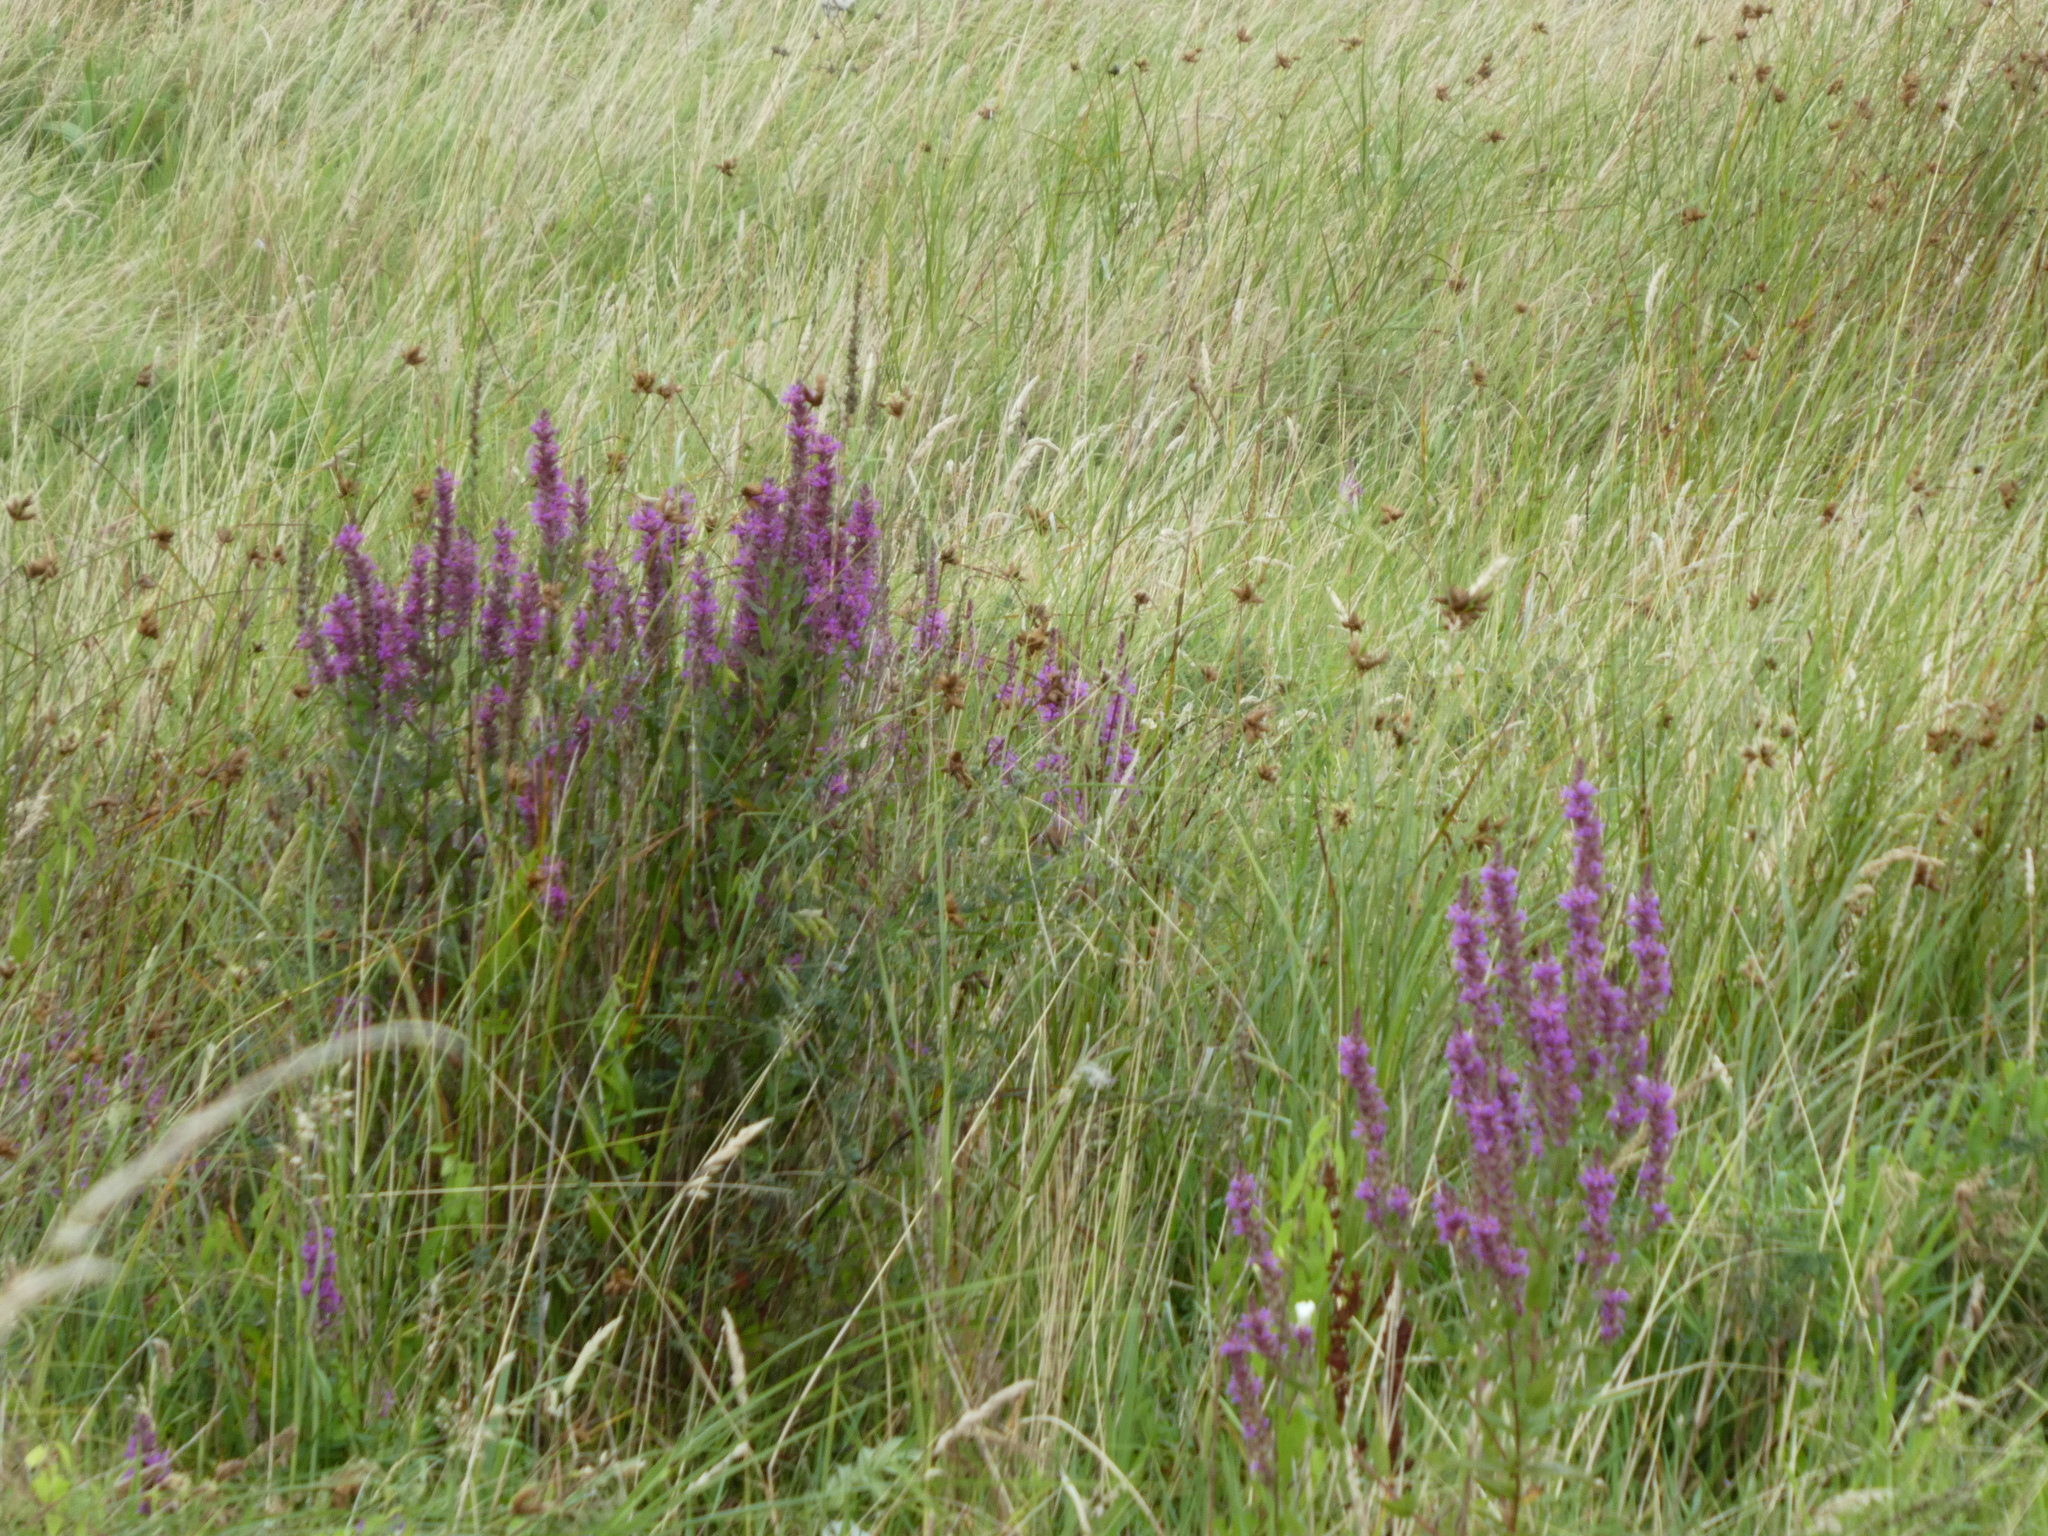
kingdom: Plantae
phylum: Tracheophyta
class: Magnoliopsida
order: Myrtales
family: Lythraceae
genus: Lythrum
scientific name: Lythrum salicaria
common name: Purple loosestrife
